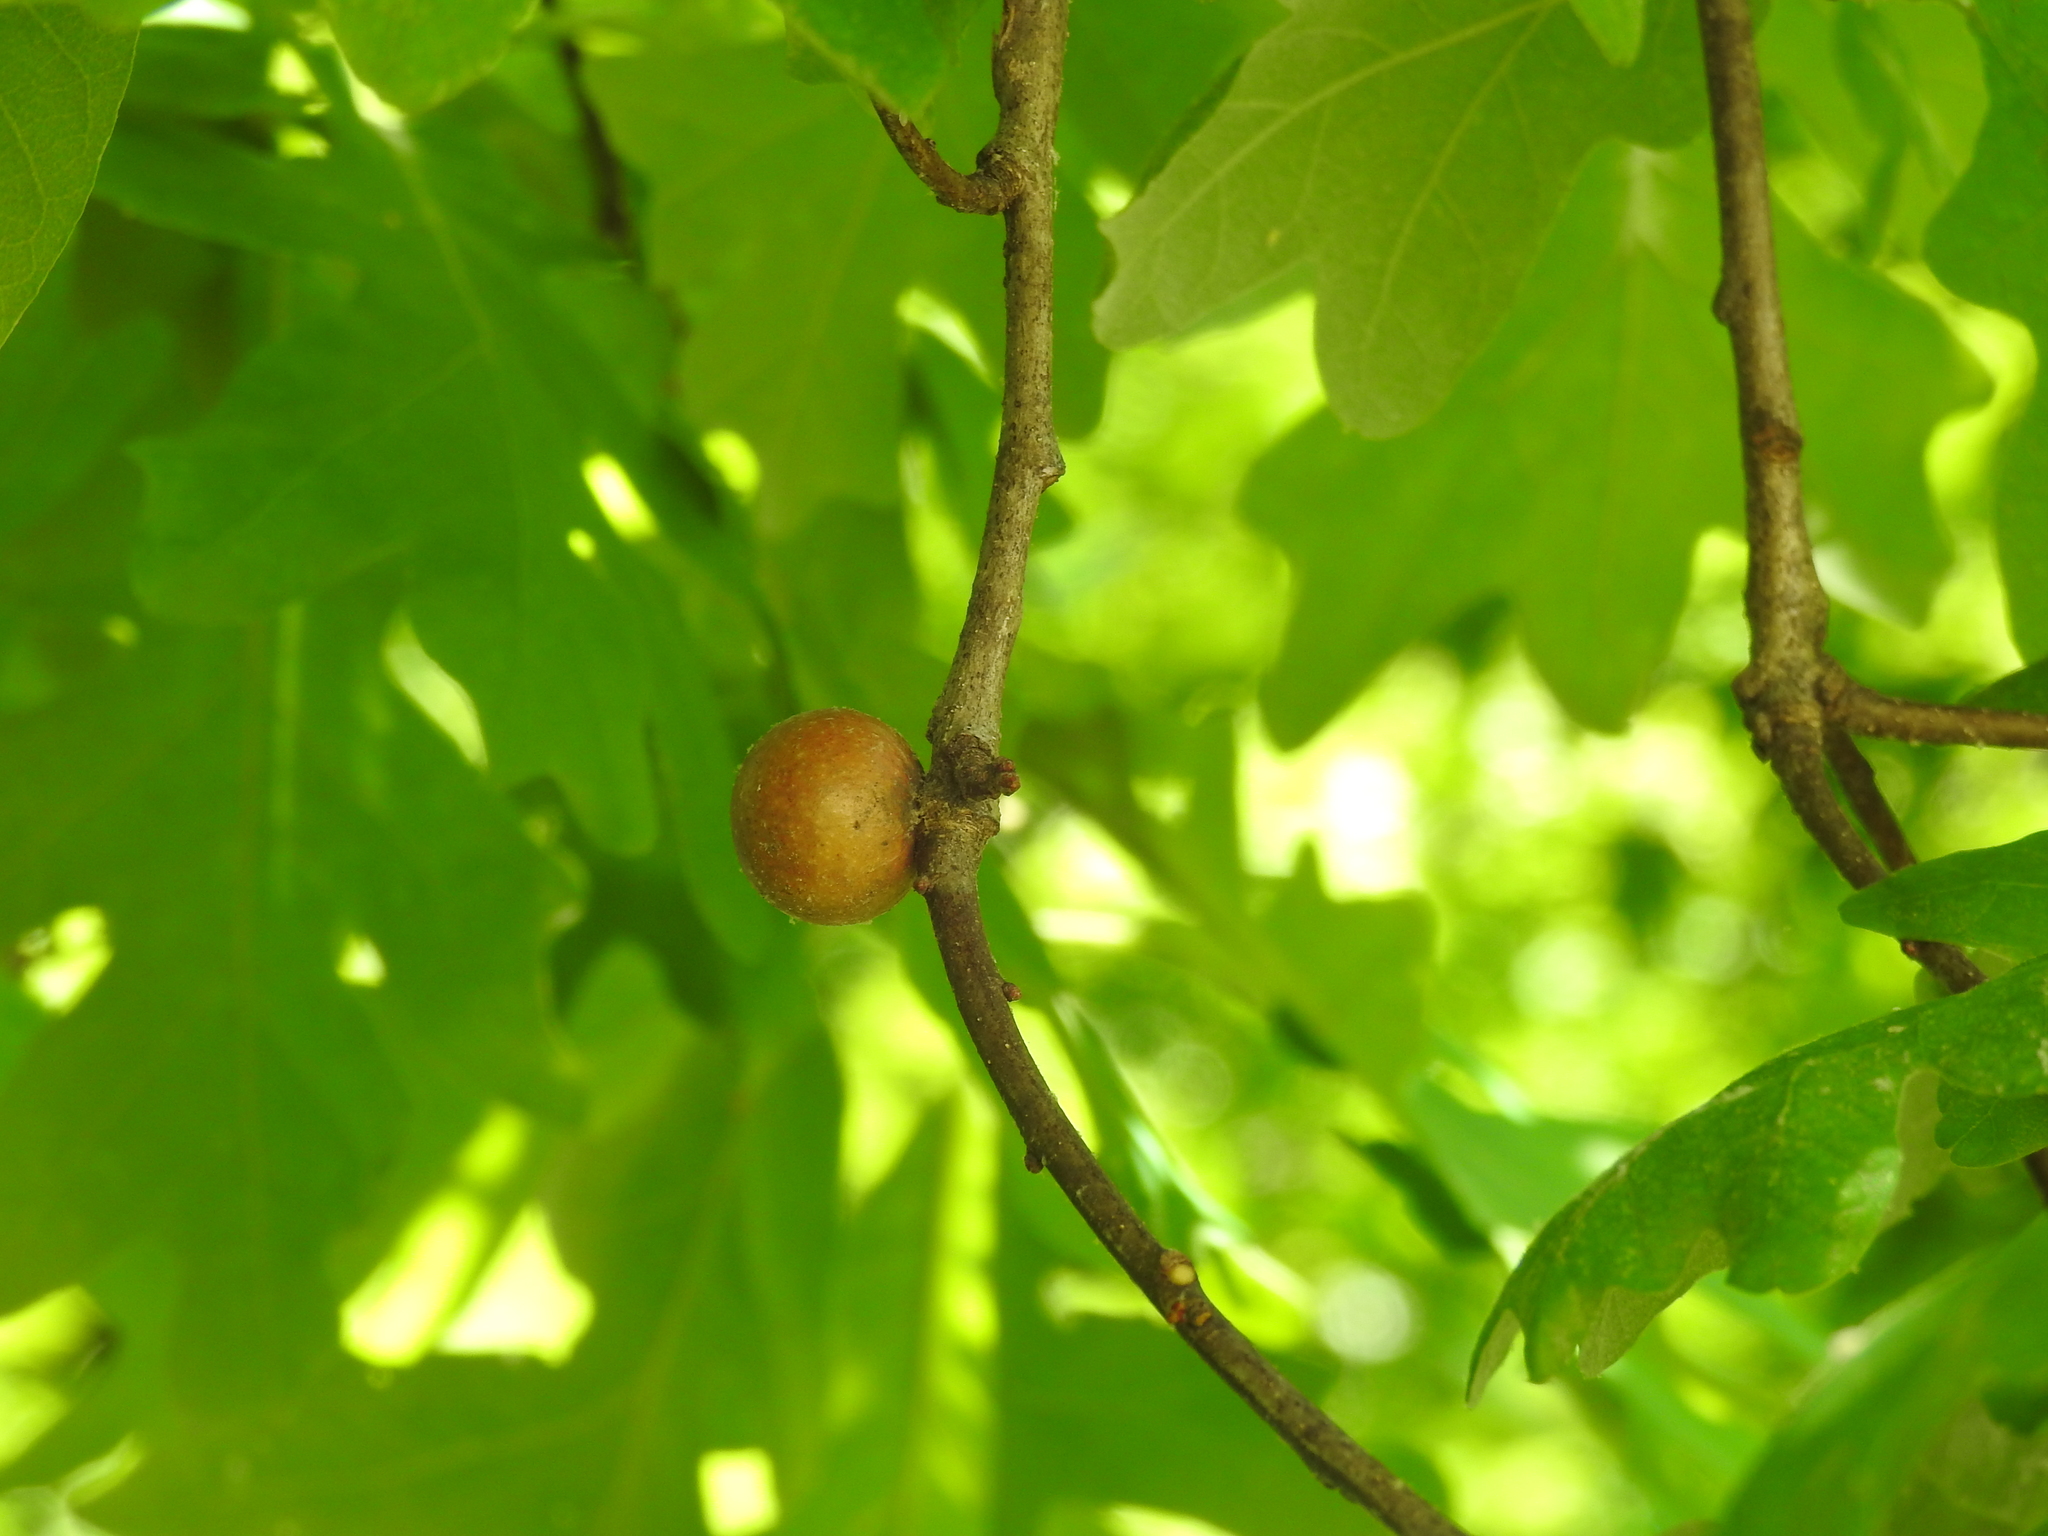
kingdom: Animalia
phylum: Arthropoda
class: Insecta
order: Hymenoptera
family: Cynipidae
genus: Disholcaspis
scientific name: Disholcaspis quercusglobulus
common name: Round bullet gall wasp
